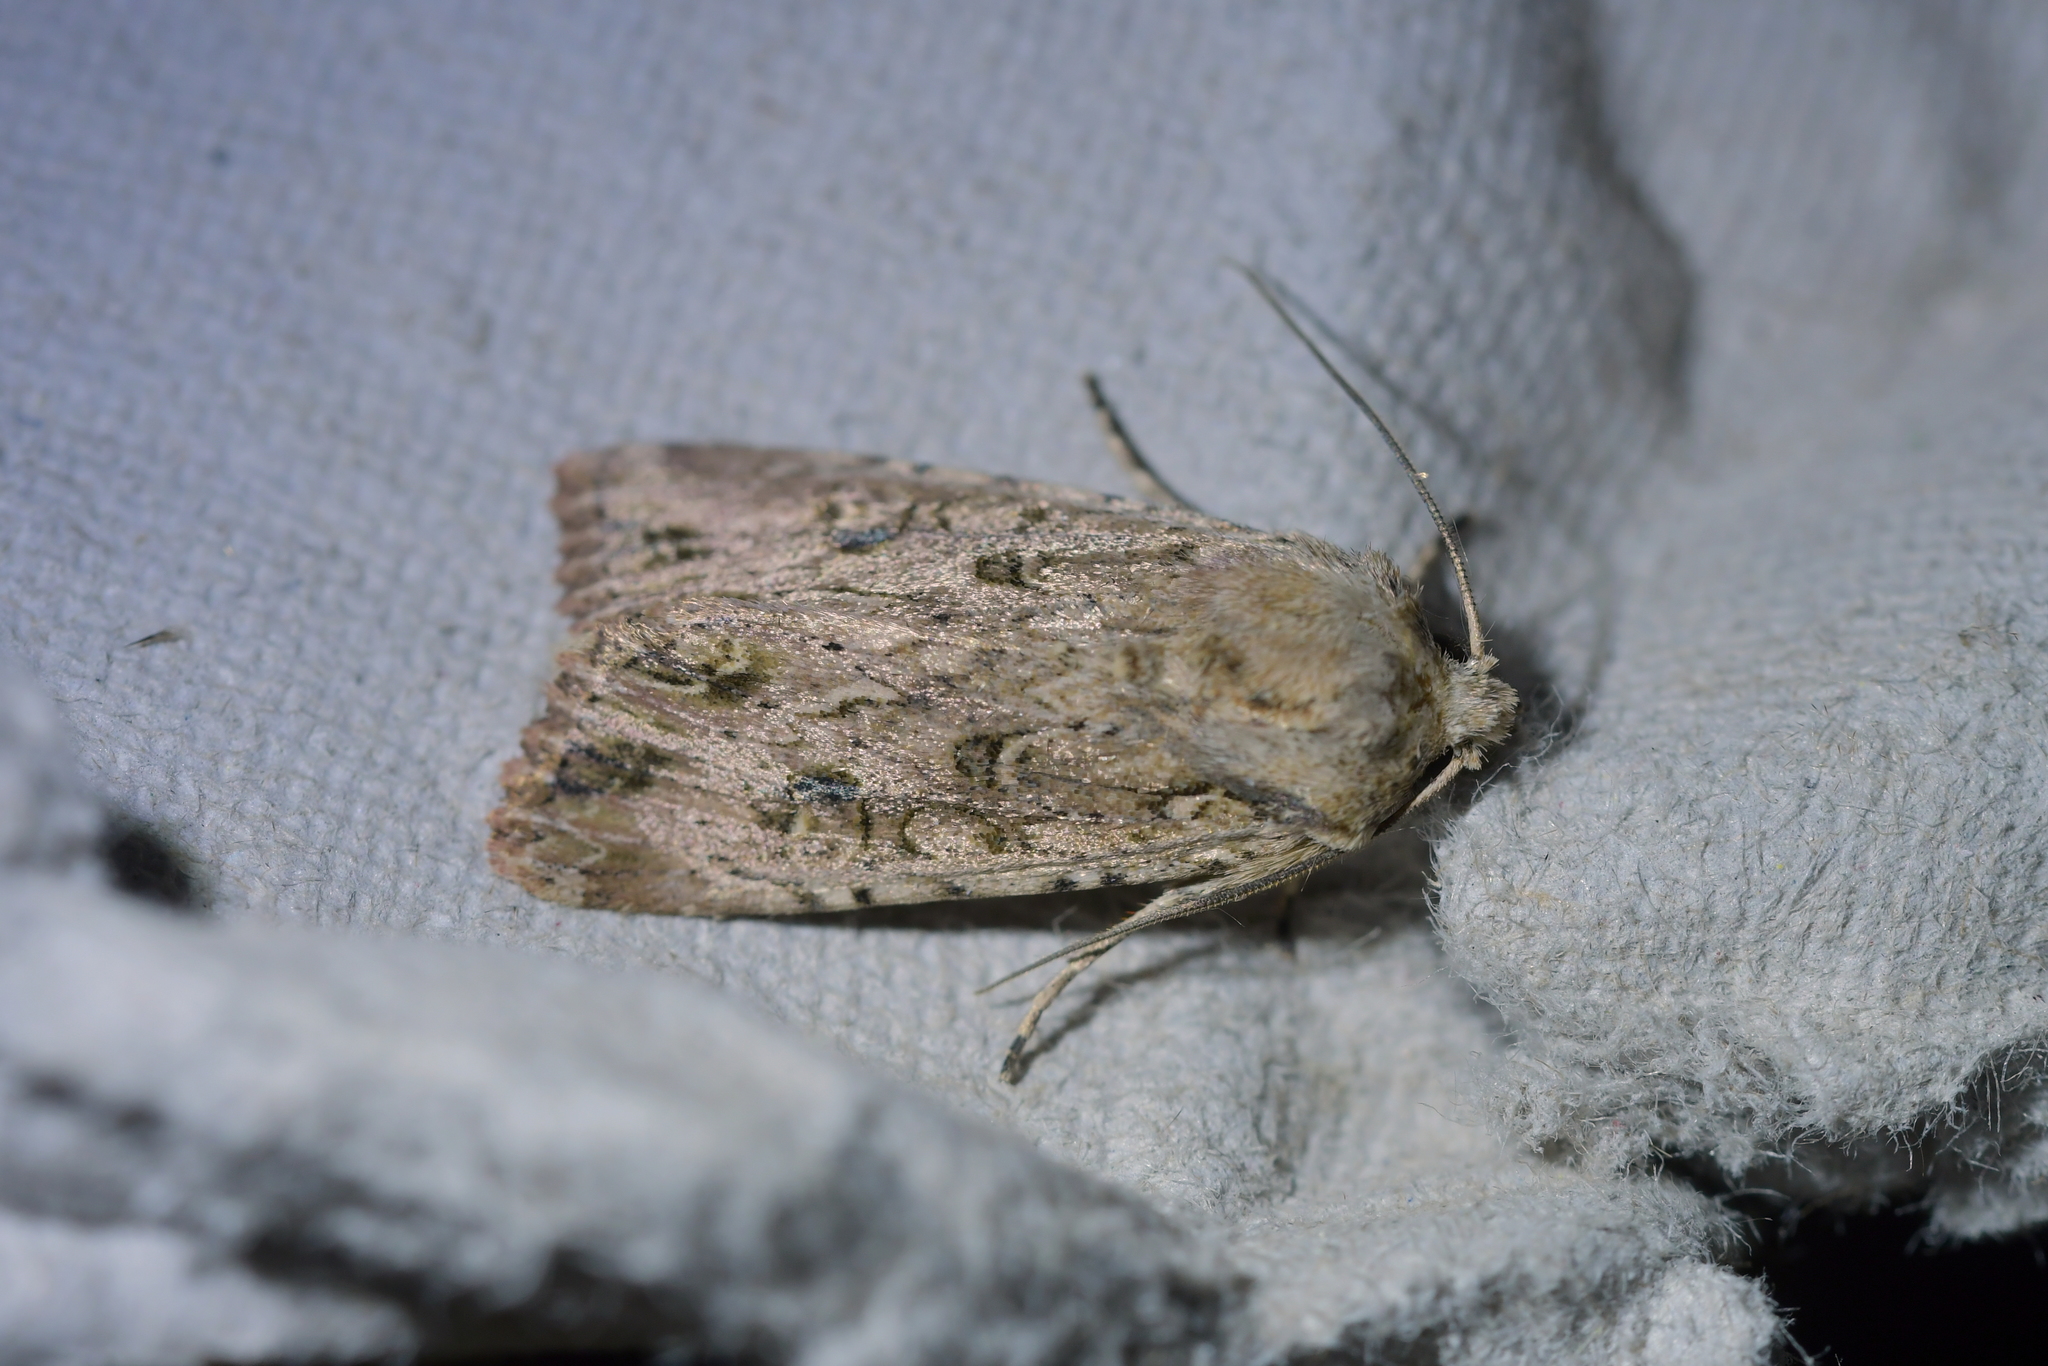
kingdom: Animalia
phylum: Arthropoda
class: Insecta
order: Lepidoptera
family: Noctuidae
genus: Ichneutica
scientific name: Ichneutica lignana
